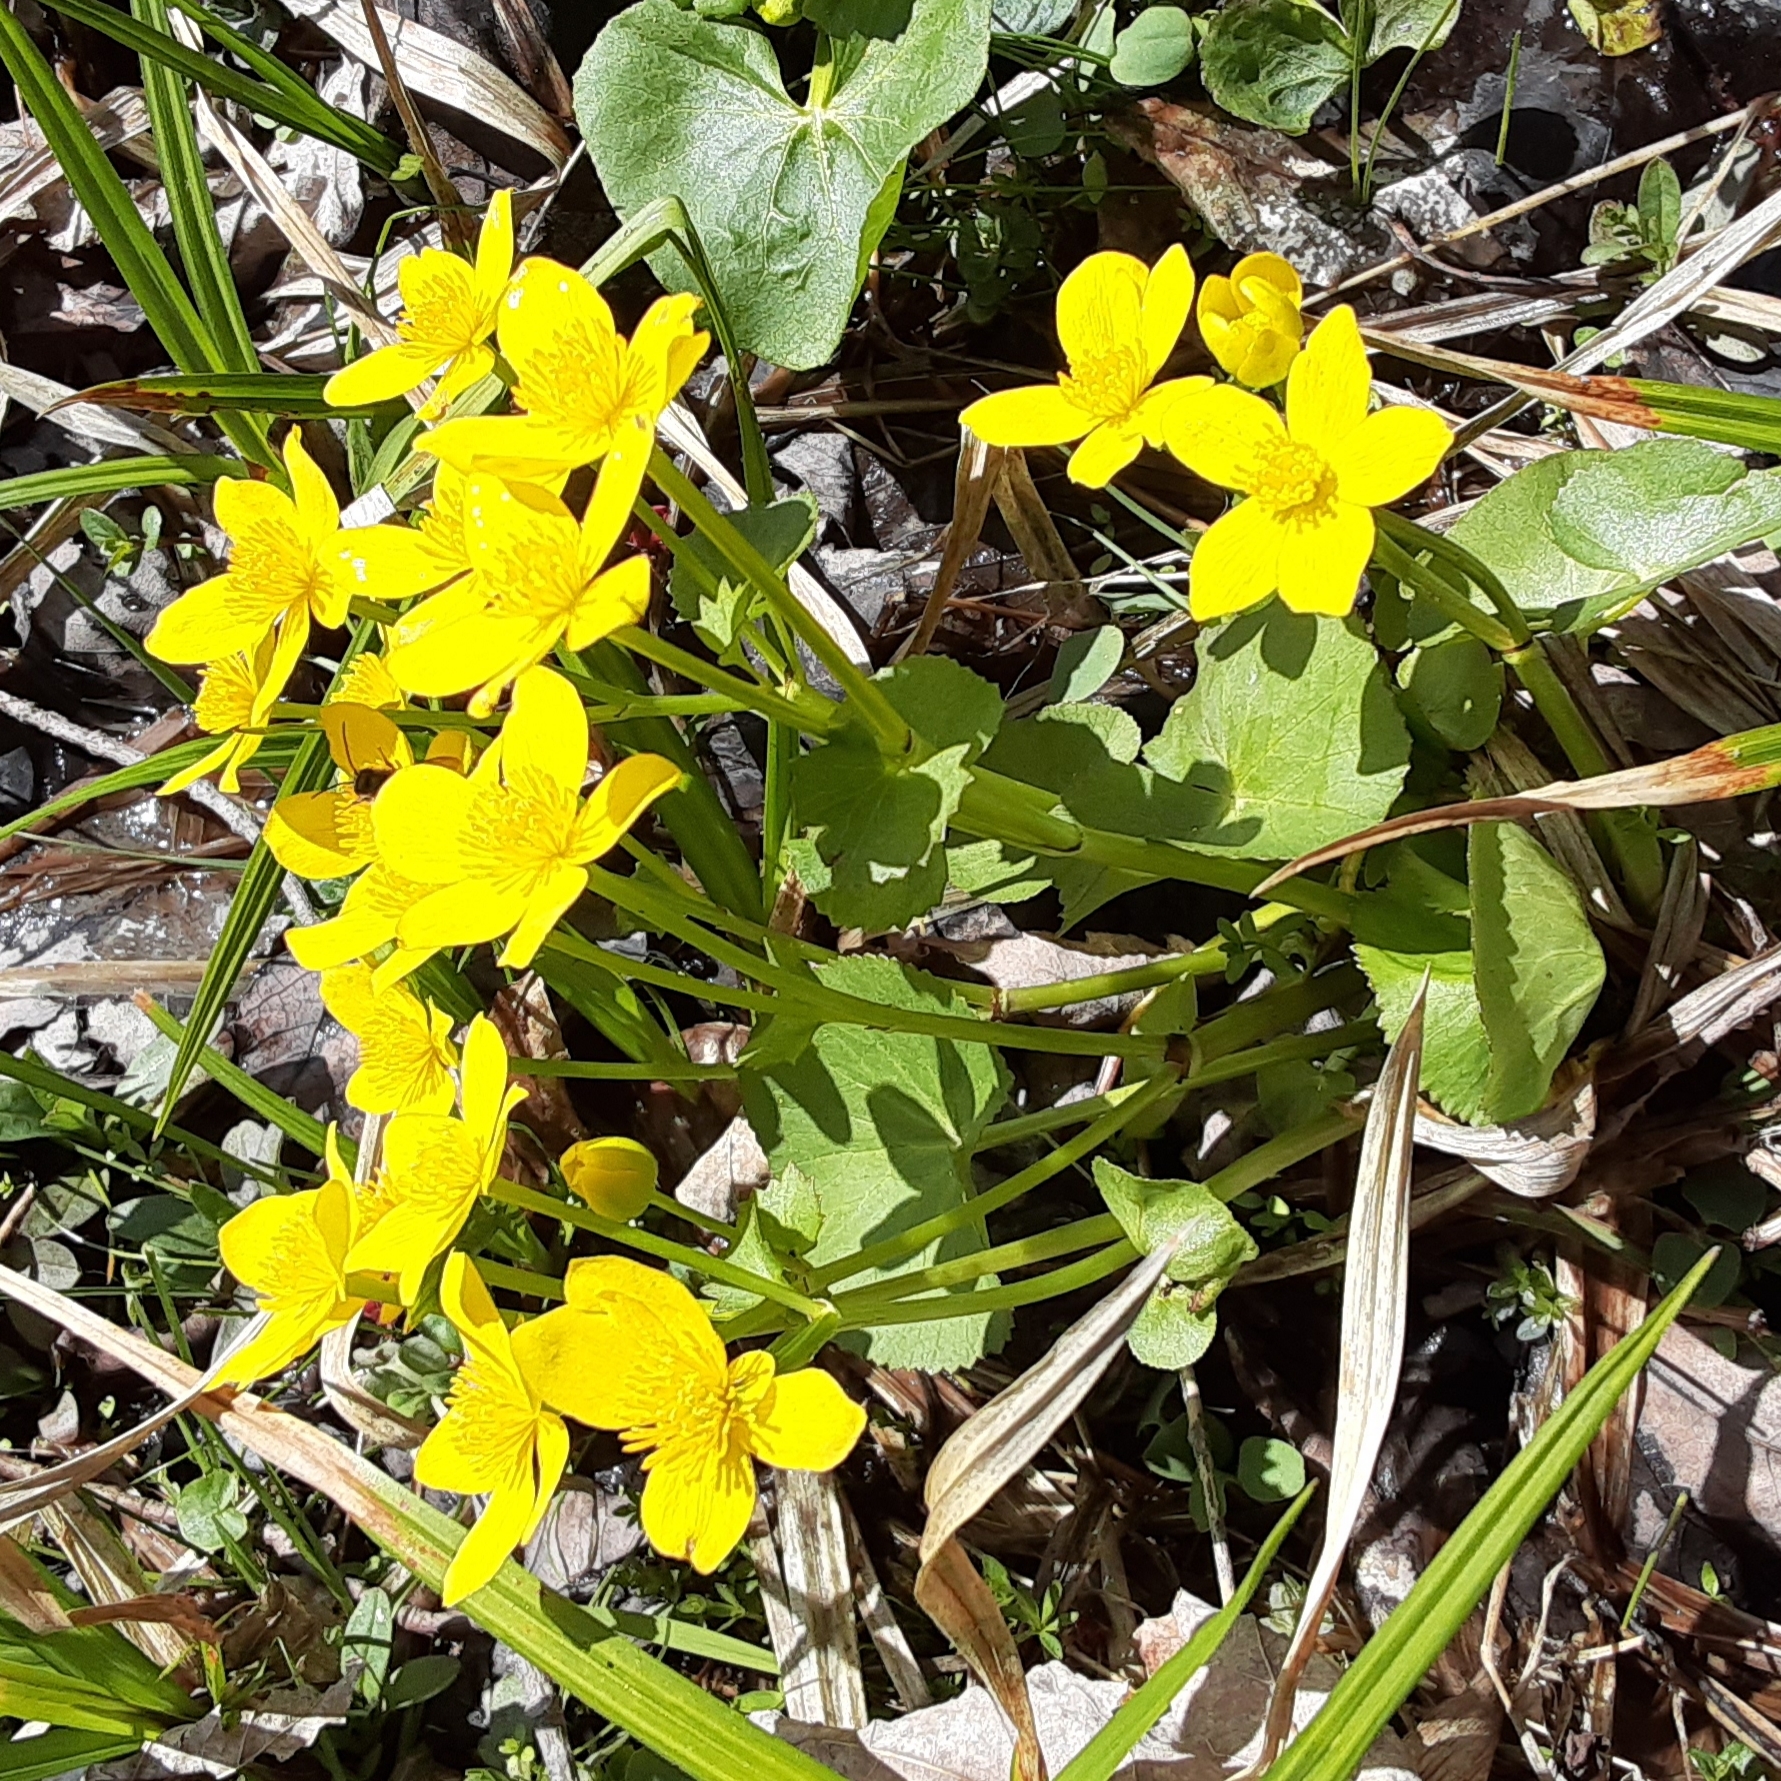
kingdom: Plantae
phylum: Tracheophyta
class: Magnoliopsida
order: Ranunculales
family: Ranunculaceae
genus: Caltha
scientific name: Caltha palustris
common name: Marsh marigold
